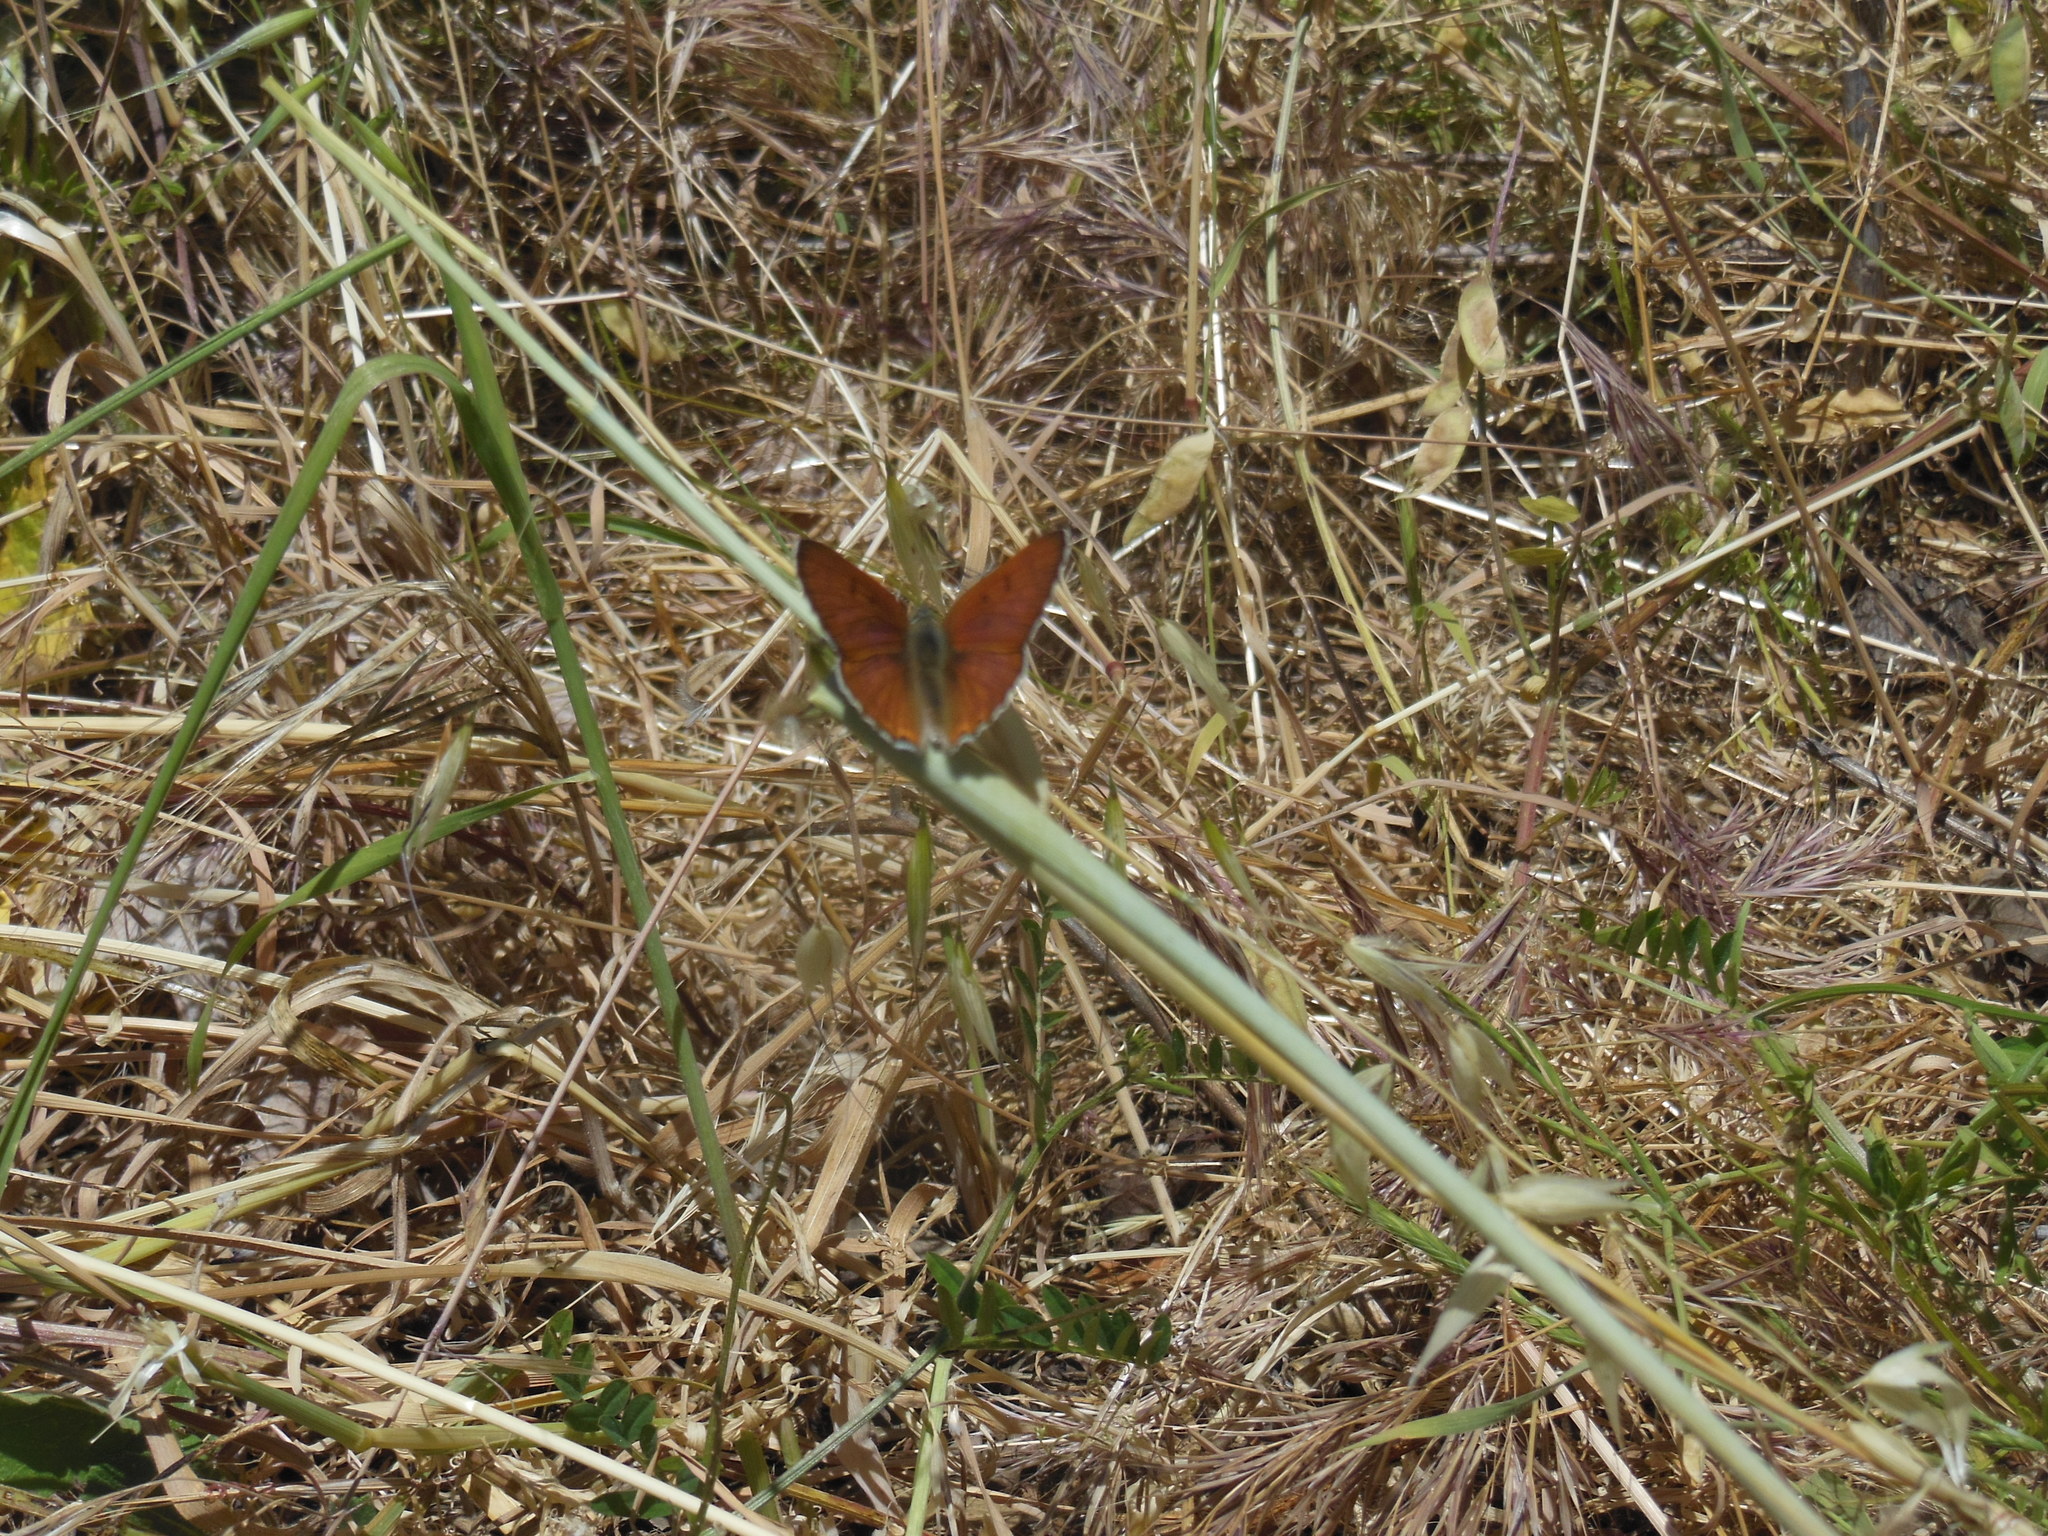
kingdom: Animalia
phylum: Arthropoda
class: Insecta
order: Lepidoptera
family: Lycaenidae
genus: Tharsalea
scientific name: Tharsalea gorgon
